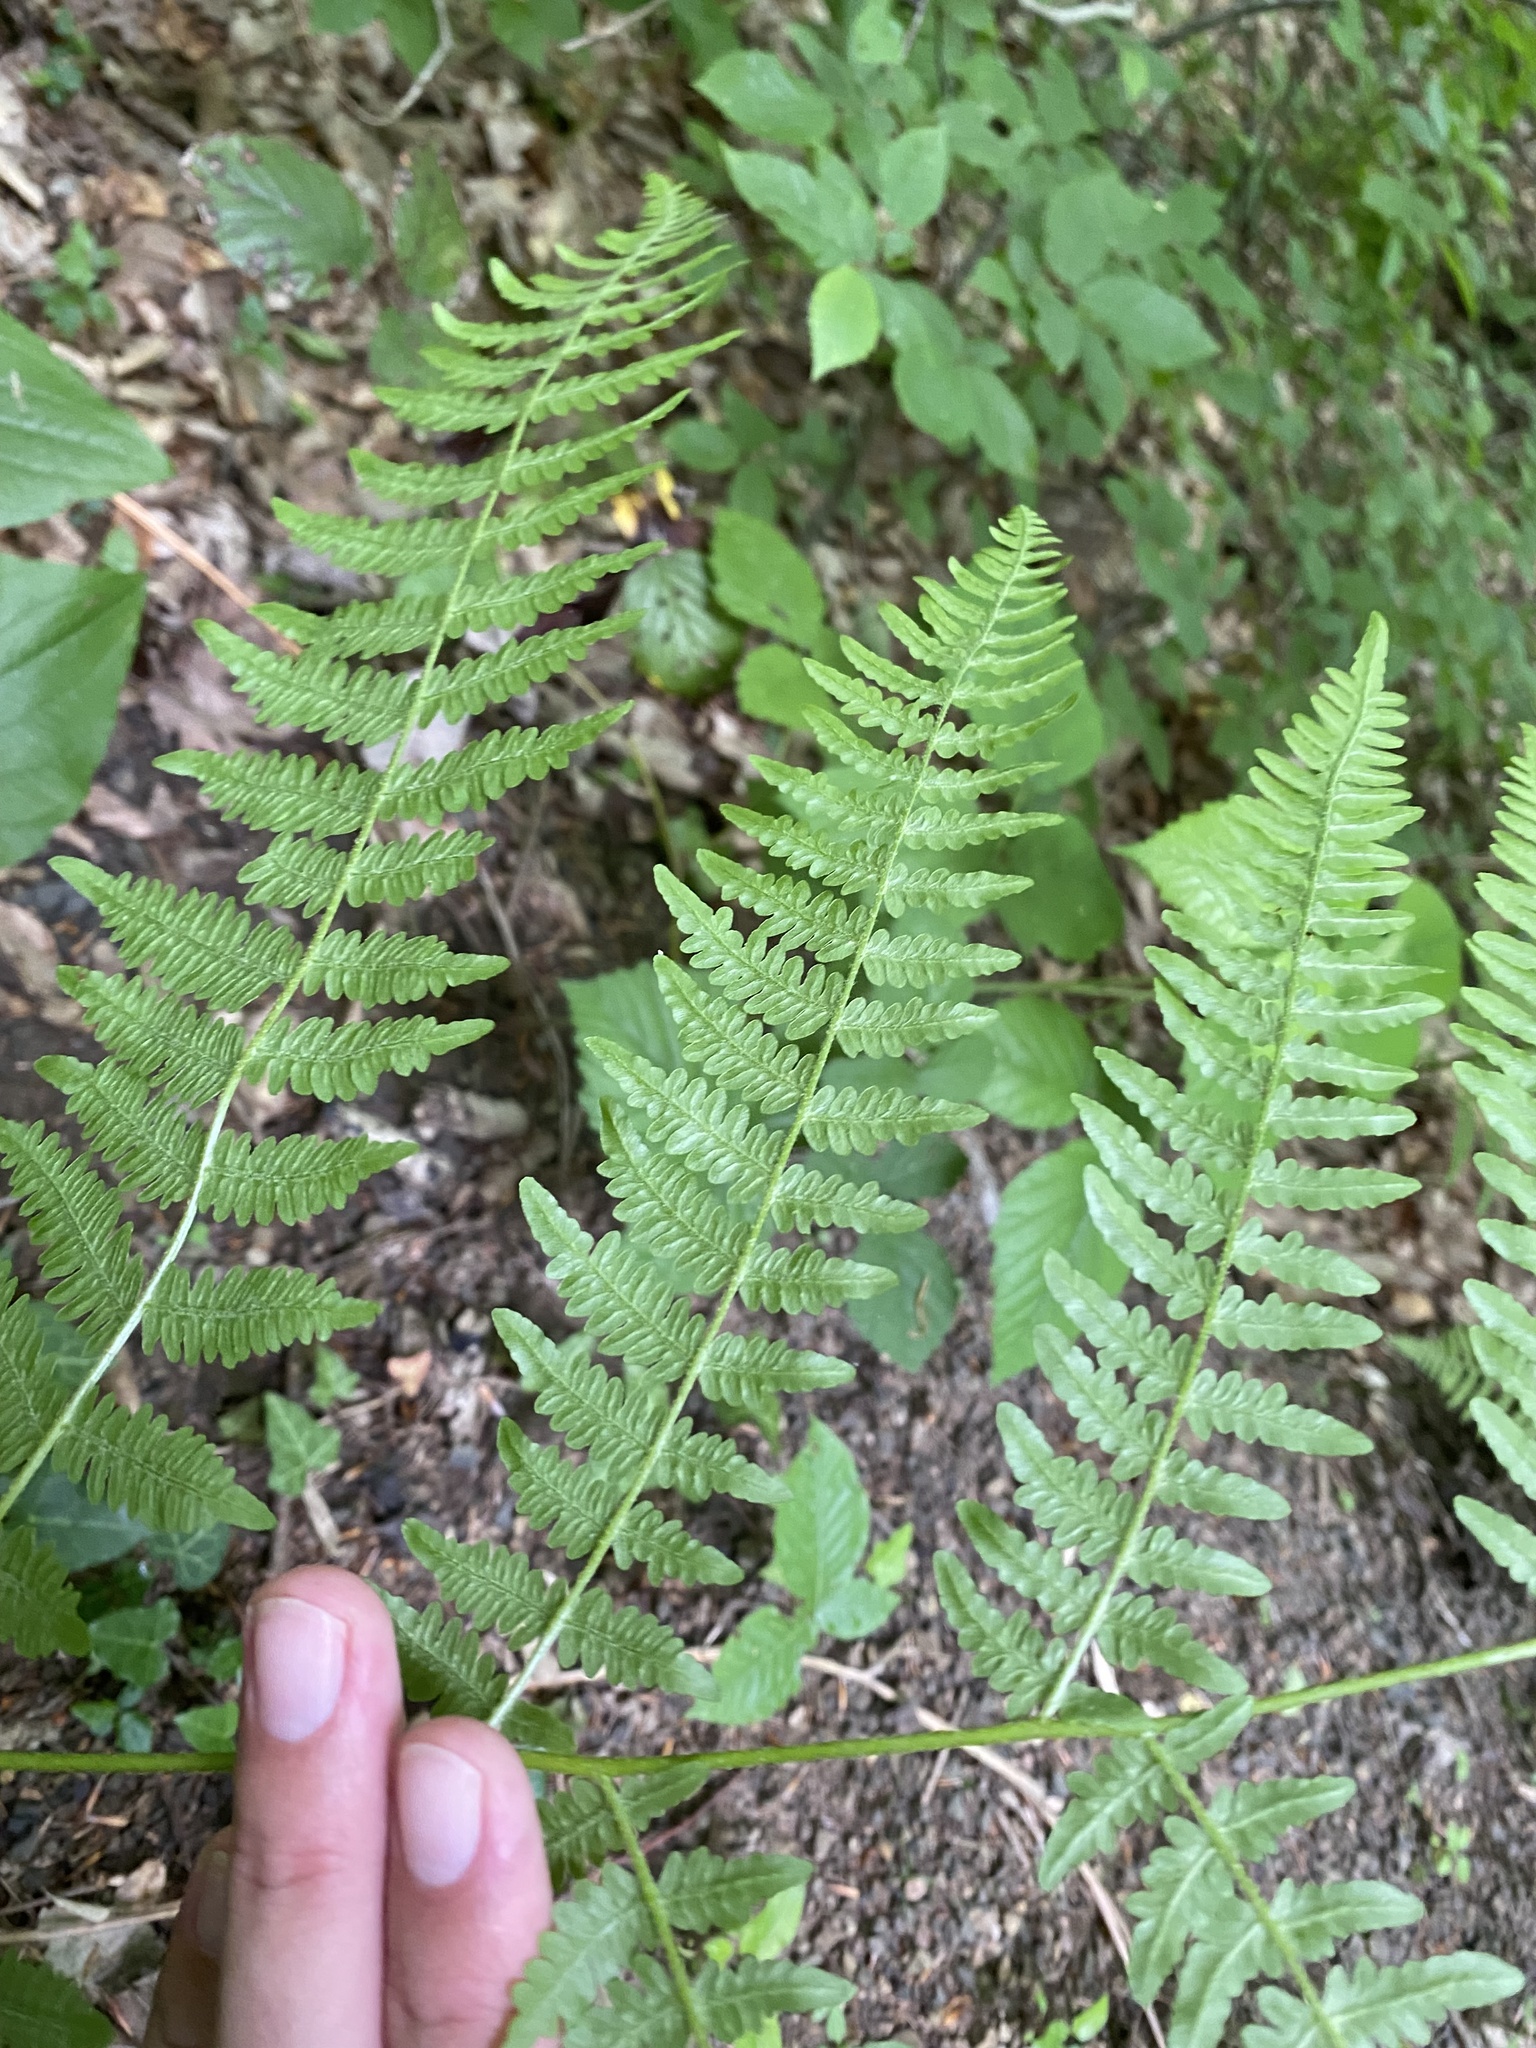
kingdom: Plantae
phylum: Tracheophyta
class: Polypodiopsida
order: Polypodiales
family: Dennstaedtiaceae
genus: Pteridium
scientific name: Pteridium tauricum
